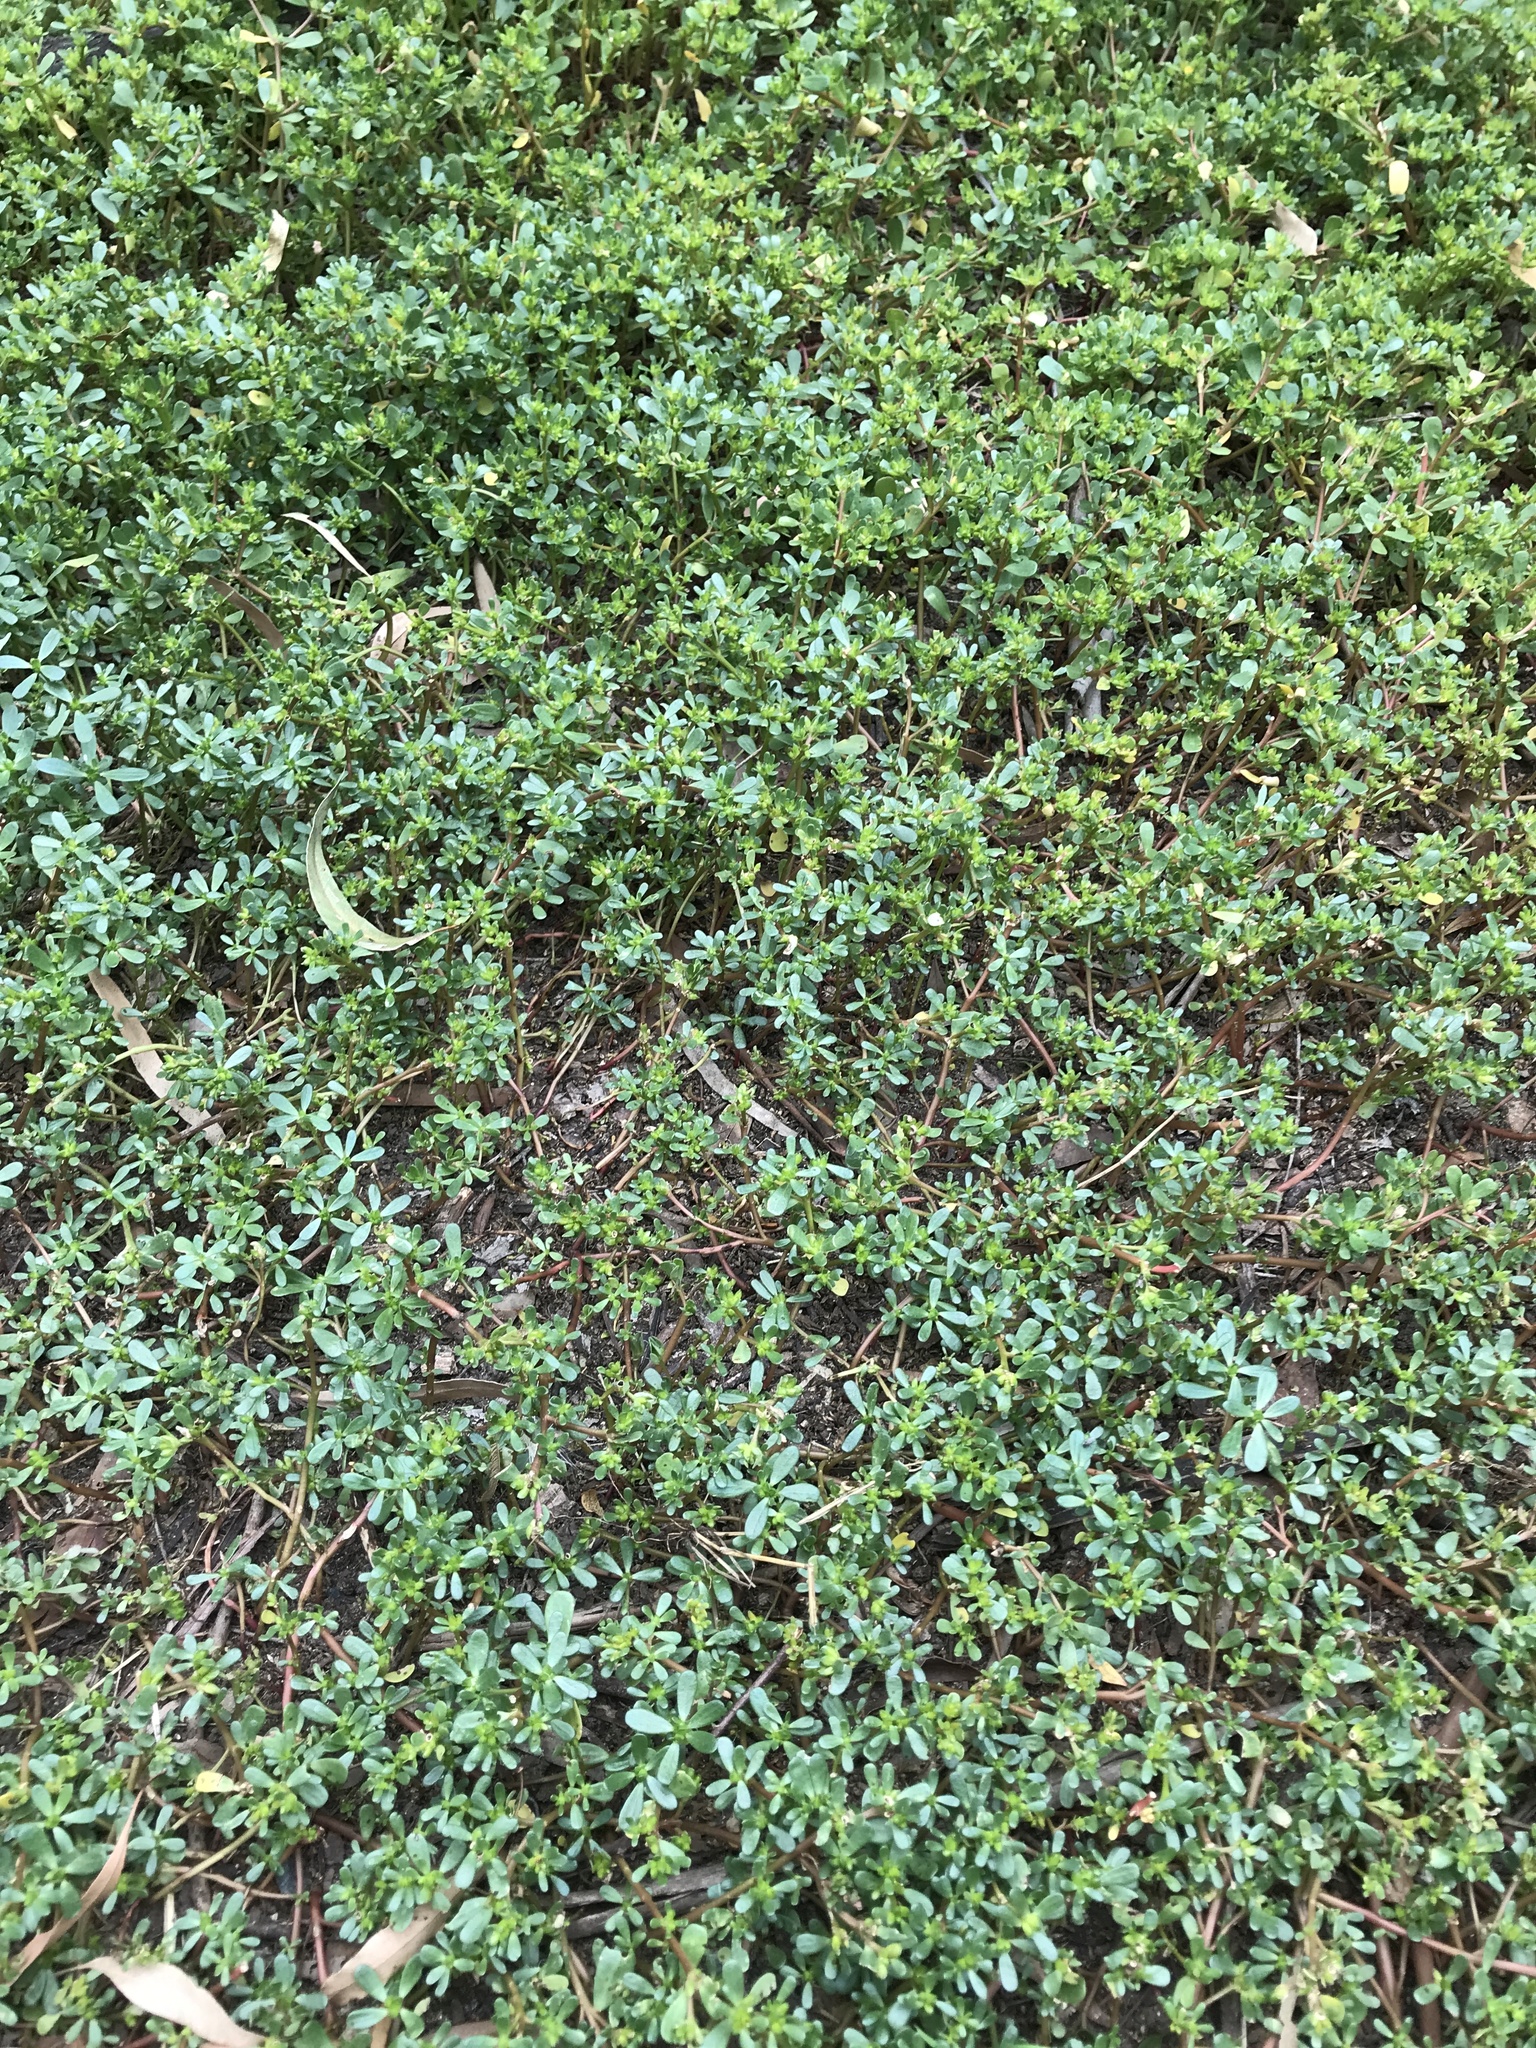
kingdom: Plantae
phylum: Tracheophyta
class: Magnoliopsida
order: Caryophyllales
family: Portulacaceae
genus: Portulaca
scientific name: Portulaca oleracea
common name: Common purslane
